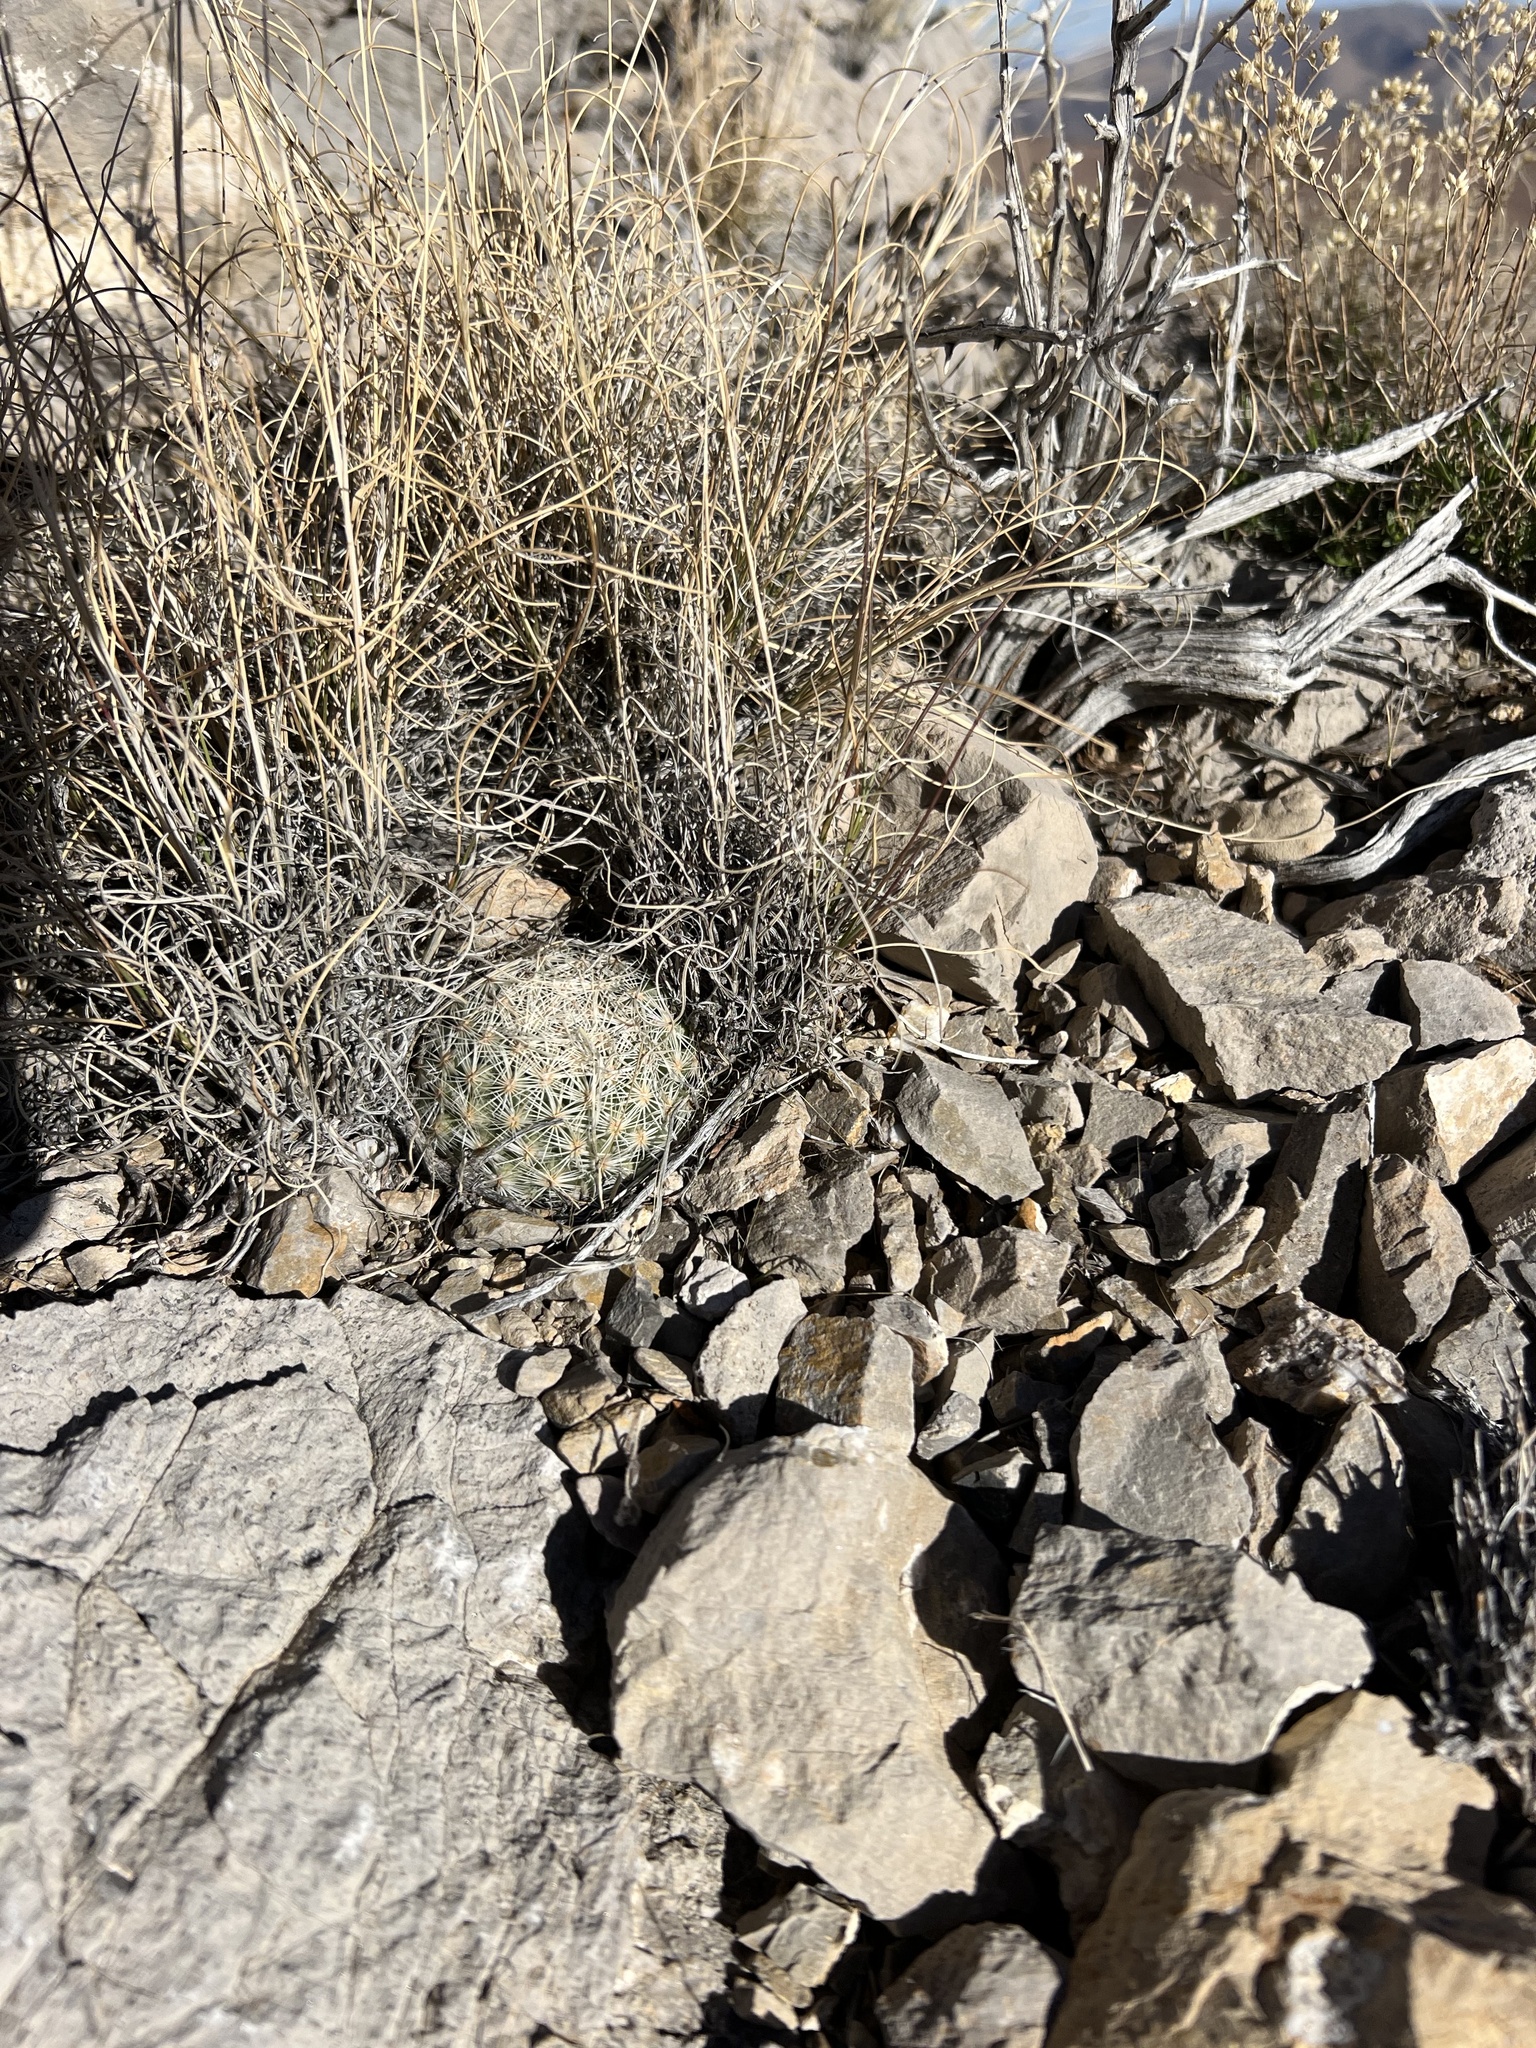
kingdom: Plantae
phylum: Tracheophyta
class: Magnoliopsida
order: Caryophyllales
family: Cactaceae
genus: Pelecyphora
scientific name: Pelecyphora dasyacantha
